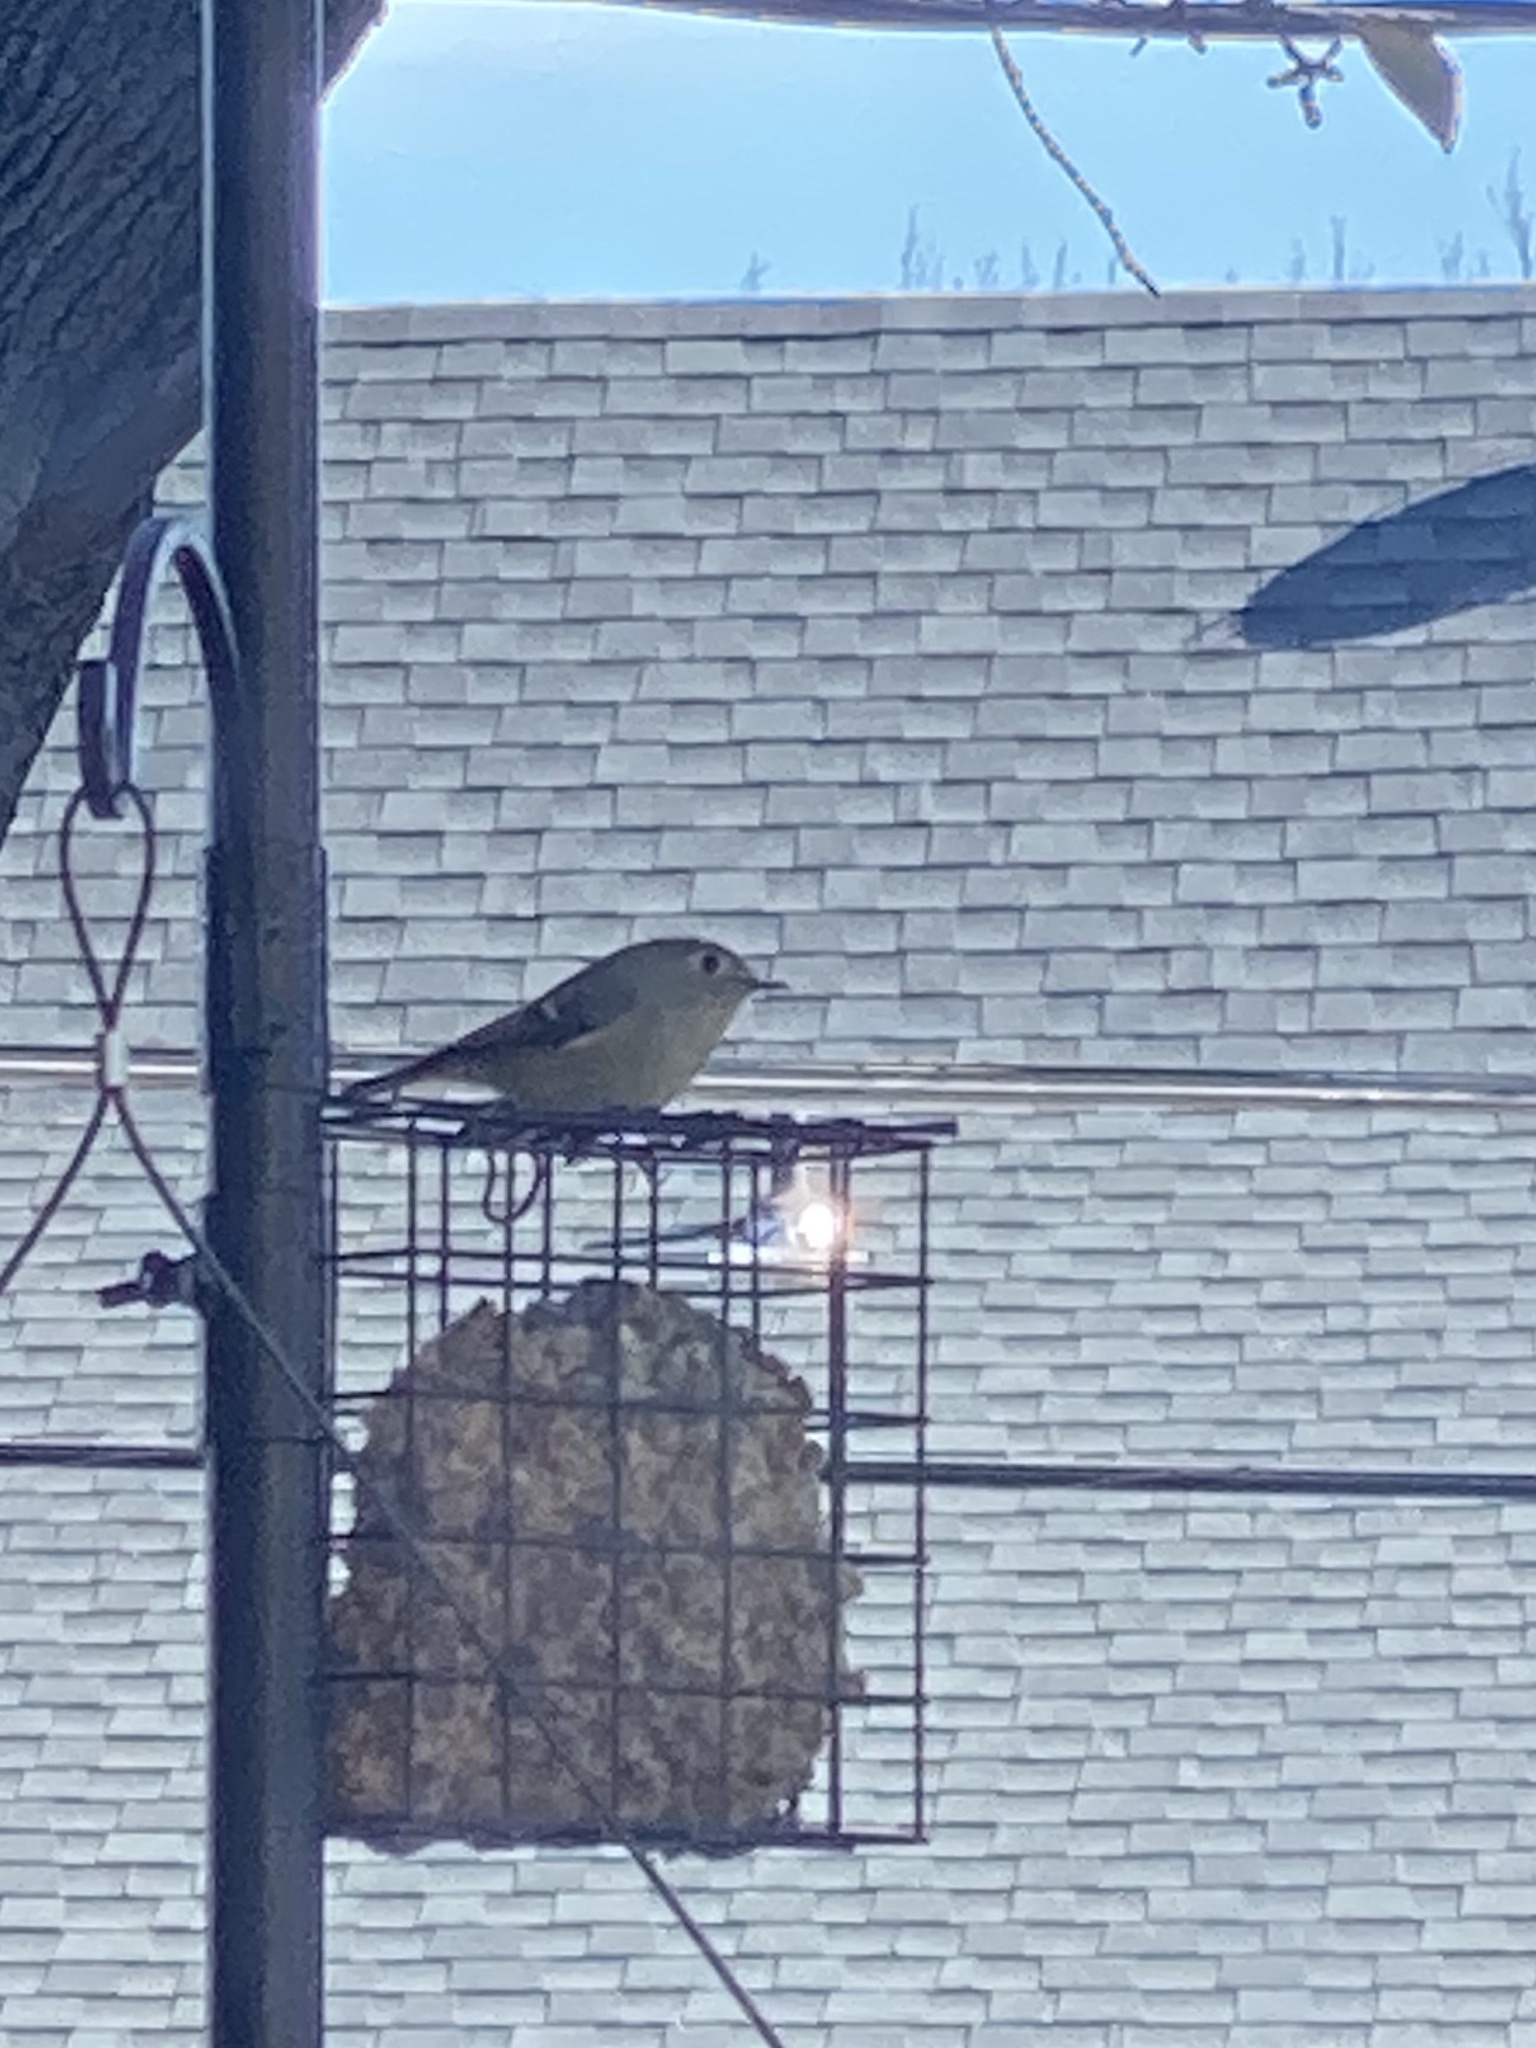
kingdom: Animalia
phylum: Chordata
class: Aves
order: Passeriformes
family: Regulidae
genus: Regulus
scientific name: Regulus calendula
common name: Ruby-crowned kinglet
